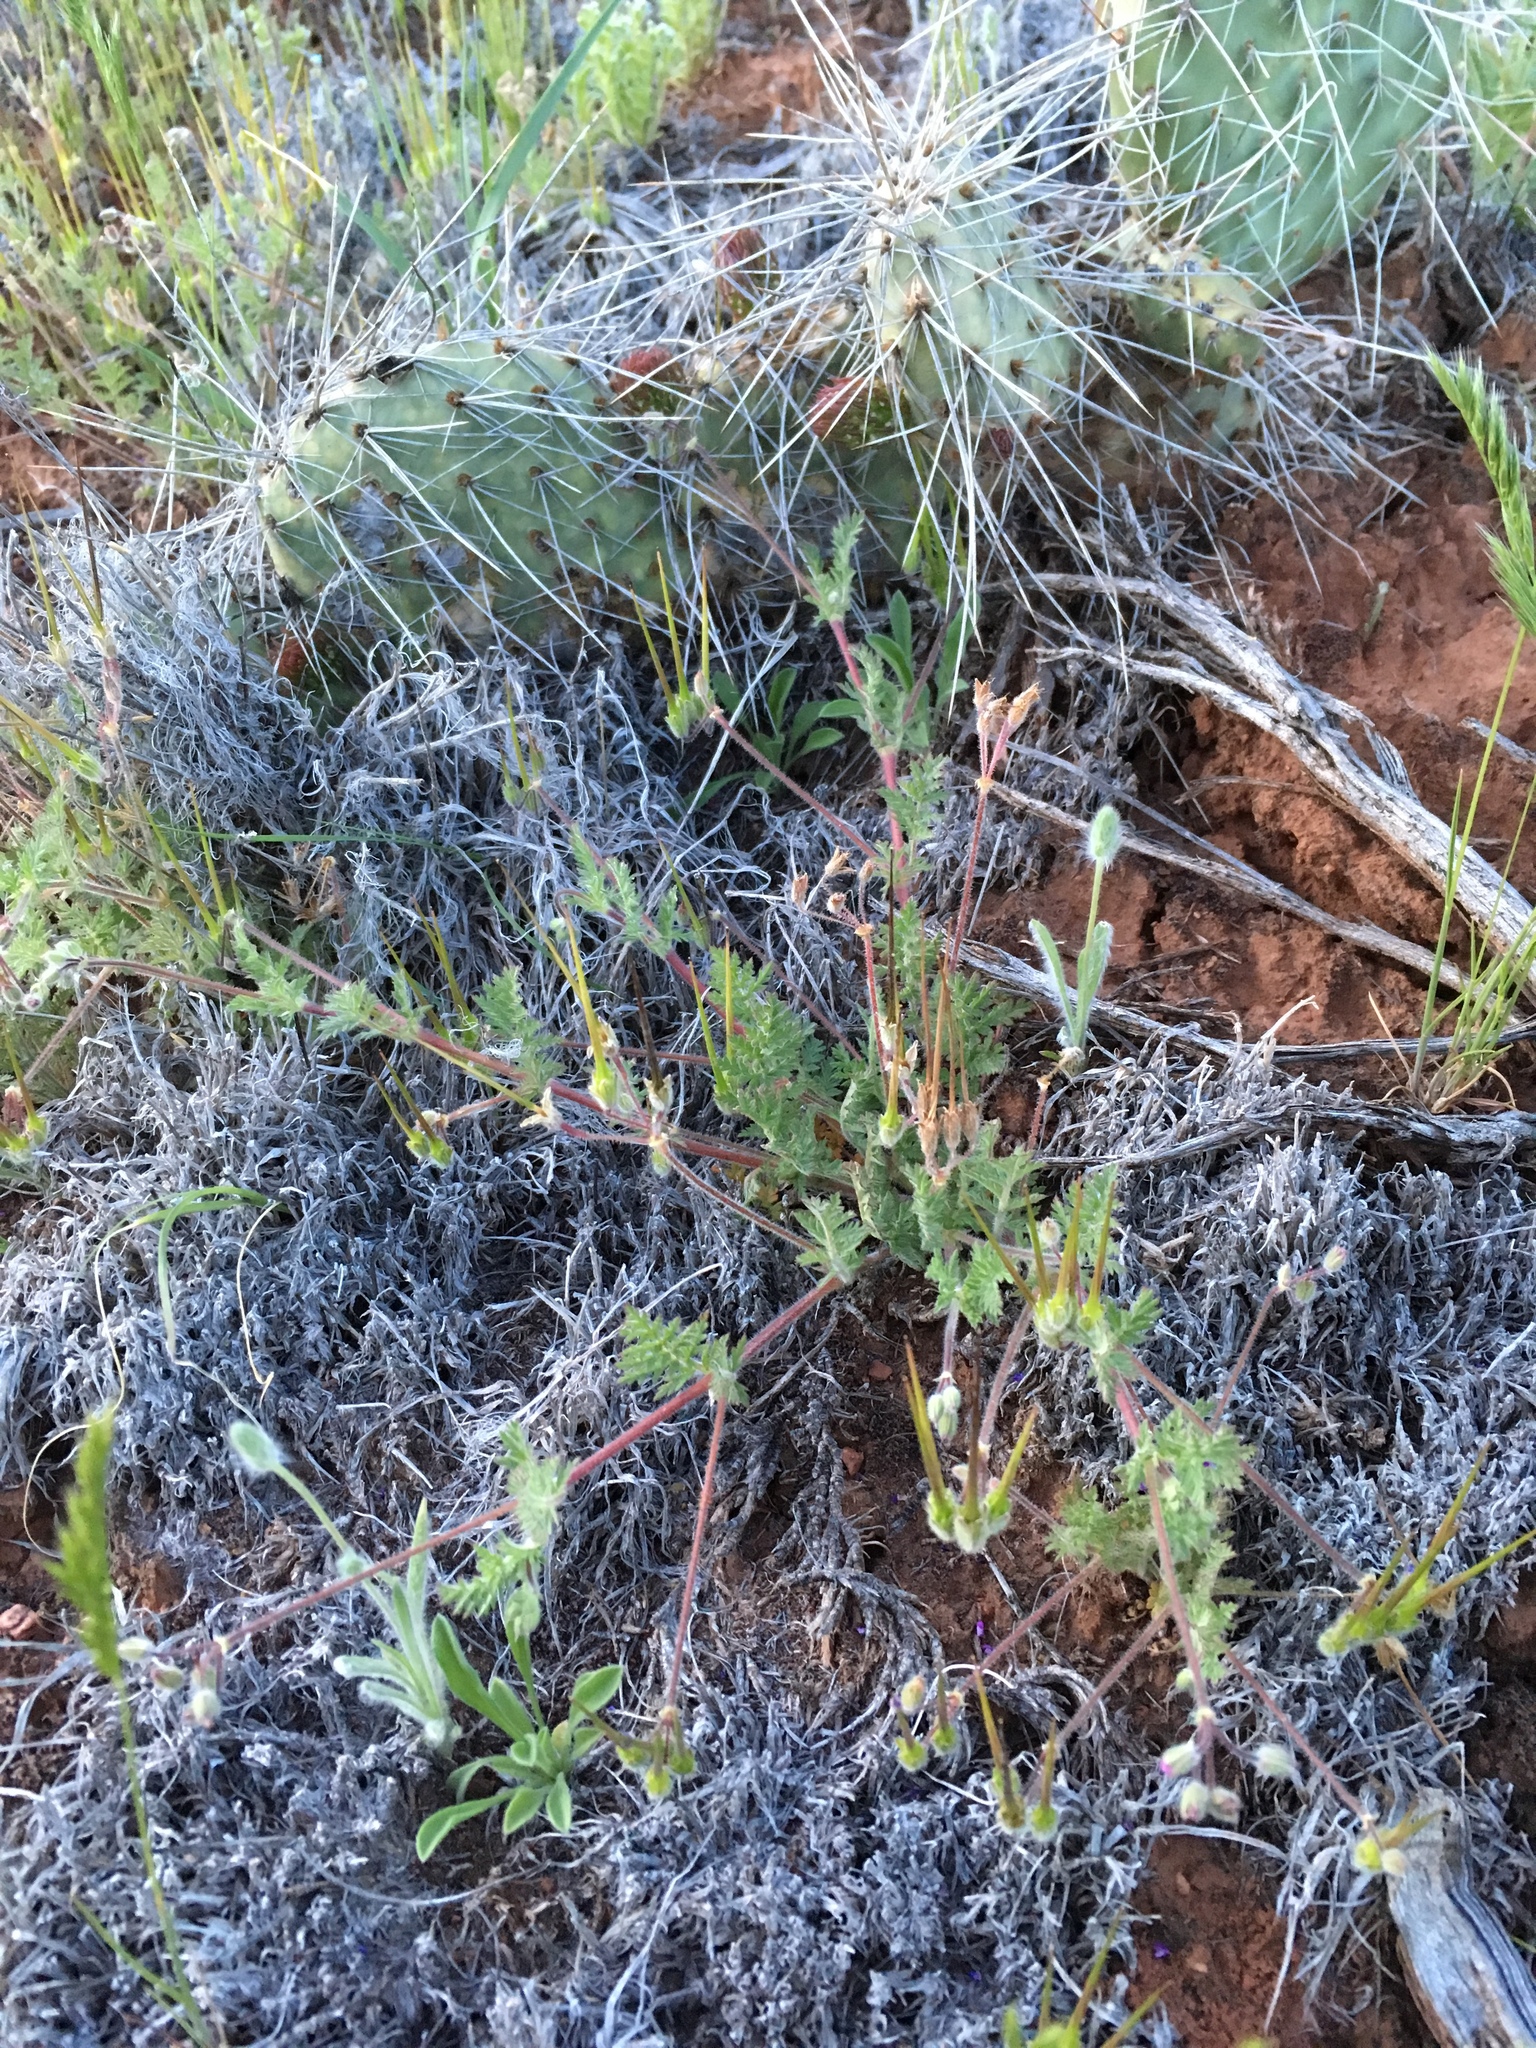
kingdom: Plantae
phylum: Tracheophyta
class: Magnoliopsida
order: Geraniales
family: Geraniaceae
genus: Erodium
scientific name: Erodium cicutarium
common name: Common stork's-bill
